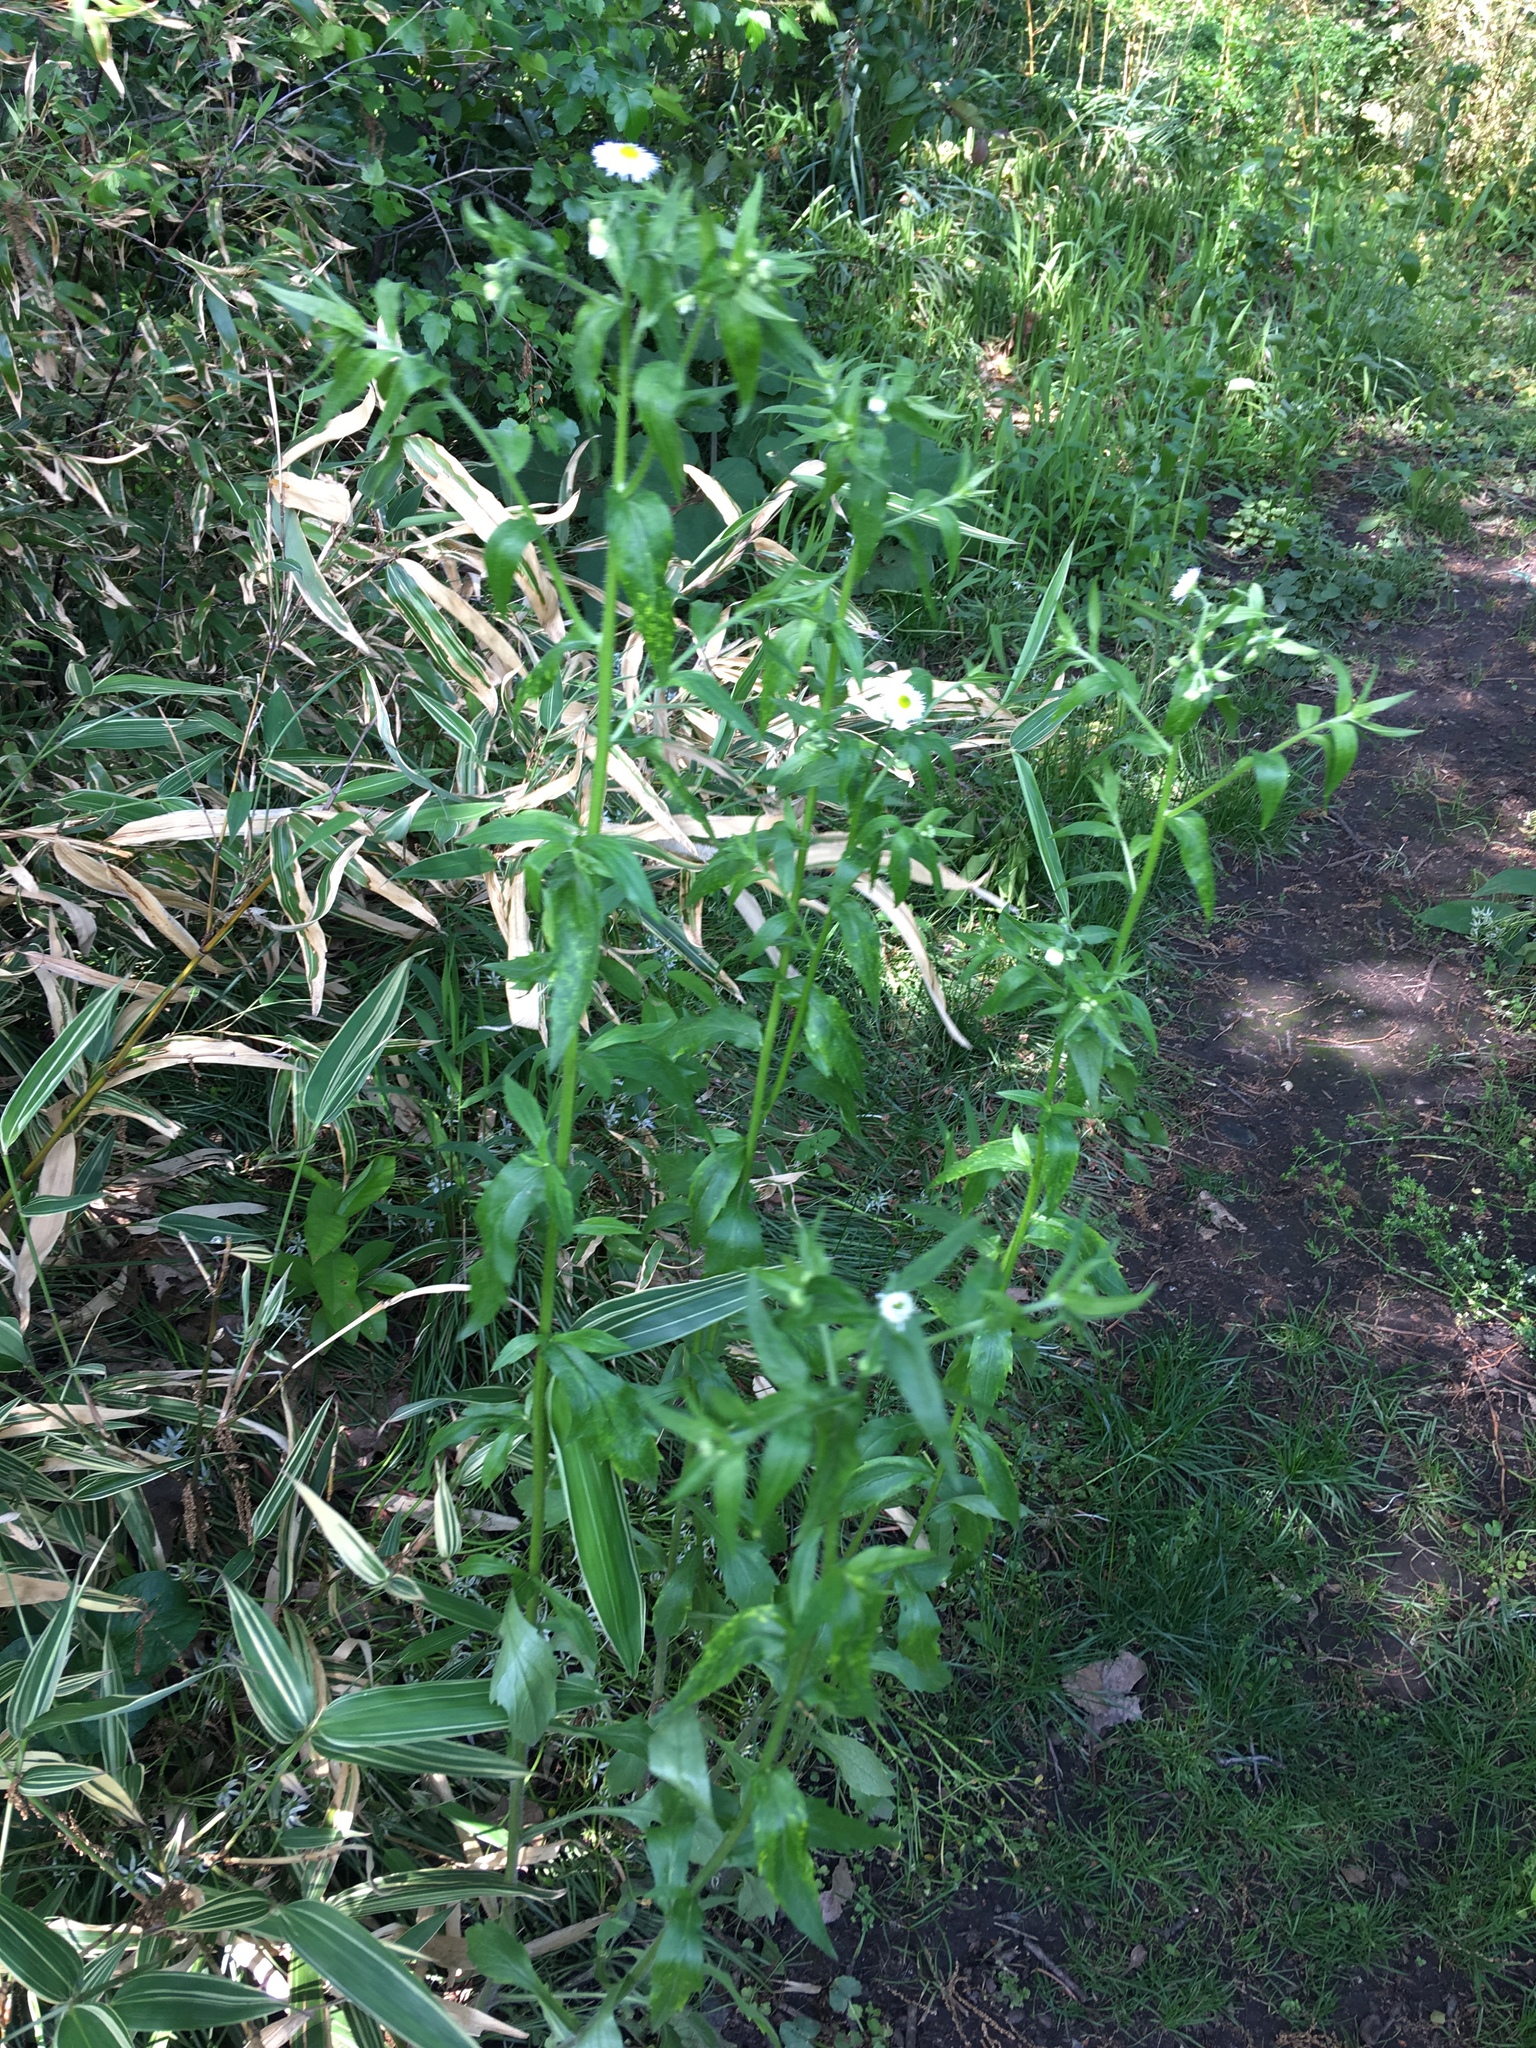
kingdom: Plantae
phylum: Tracheophyta
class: Magnoliopsida
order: Asterales
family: Asteraceae
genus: Erigeron
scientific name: Erigeron philadelphicus
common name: Robin's-plantain
